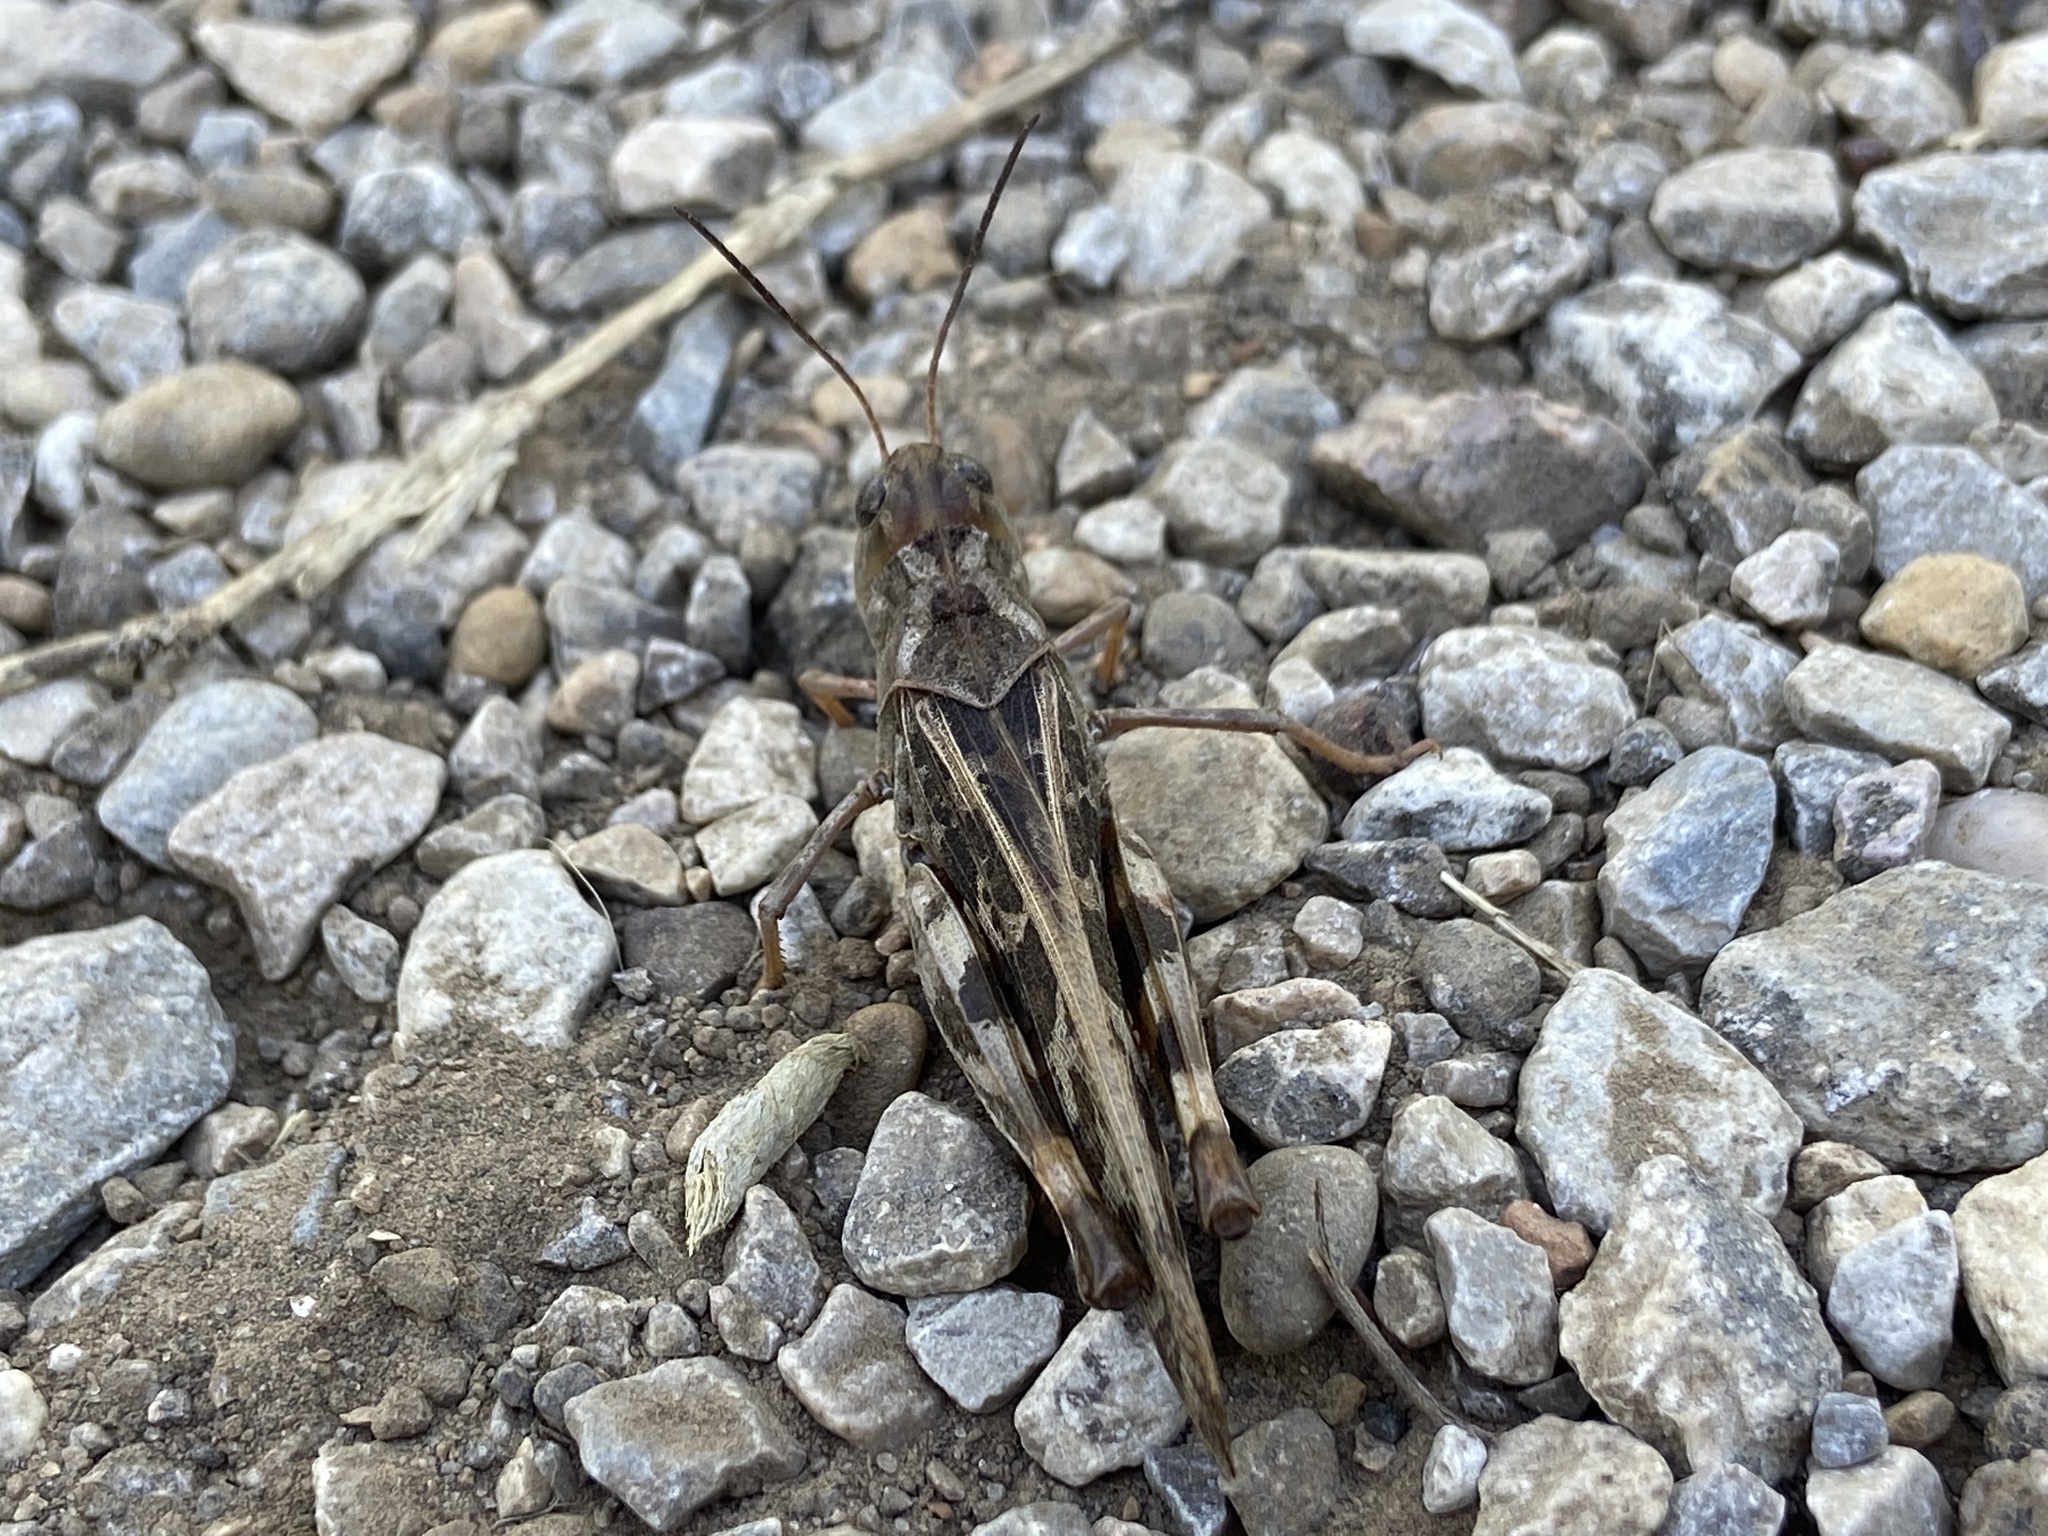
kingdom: Animalia
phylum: Arthropoda
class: Insecta
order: Orthoptera
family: Acrididae
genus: Hippiscus
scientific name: Hippiscus ocelote
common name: Wrinkled grasshopper
